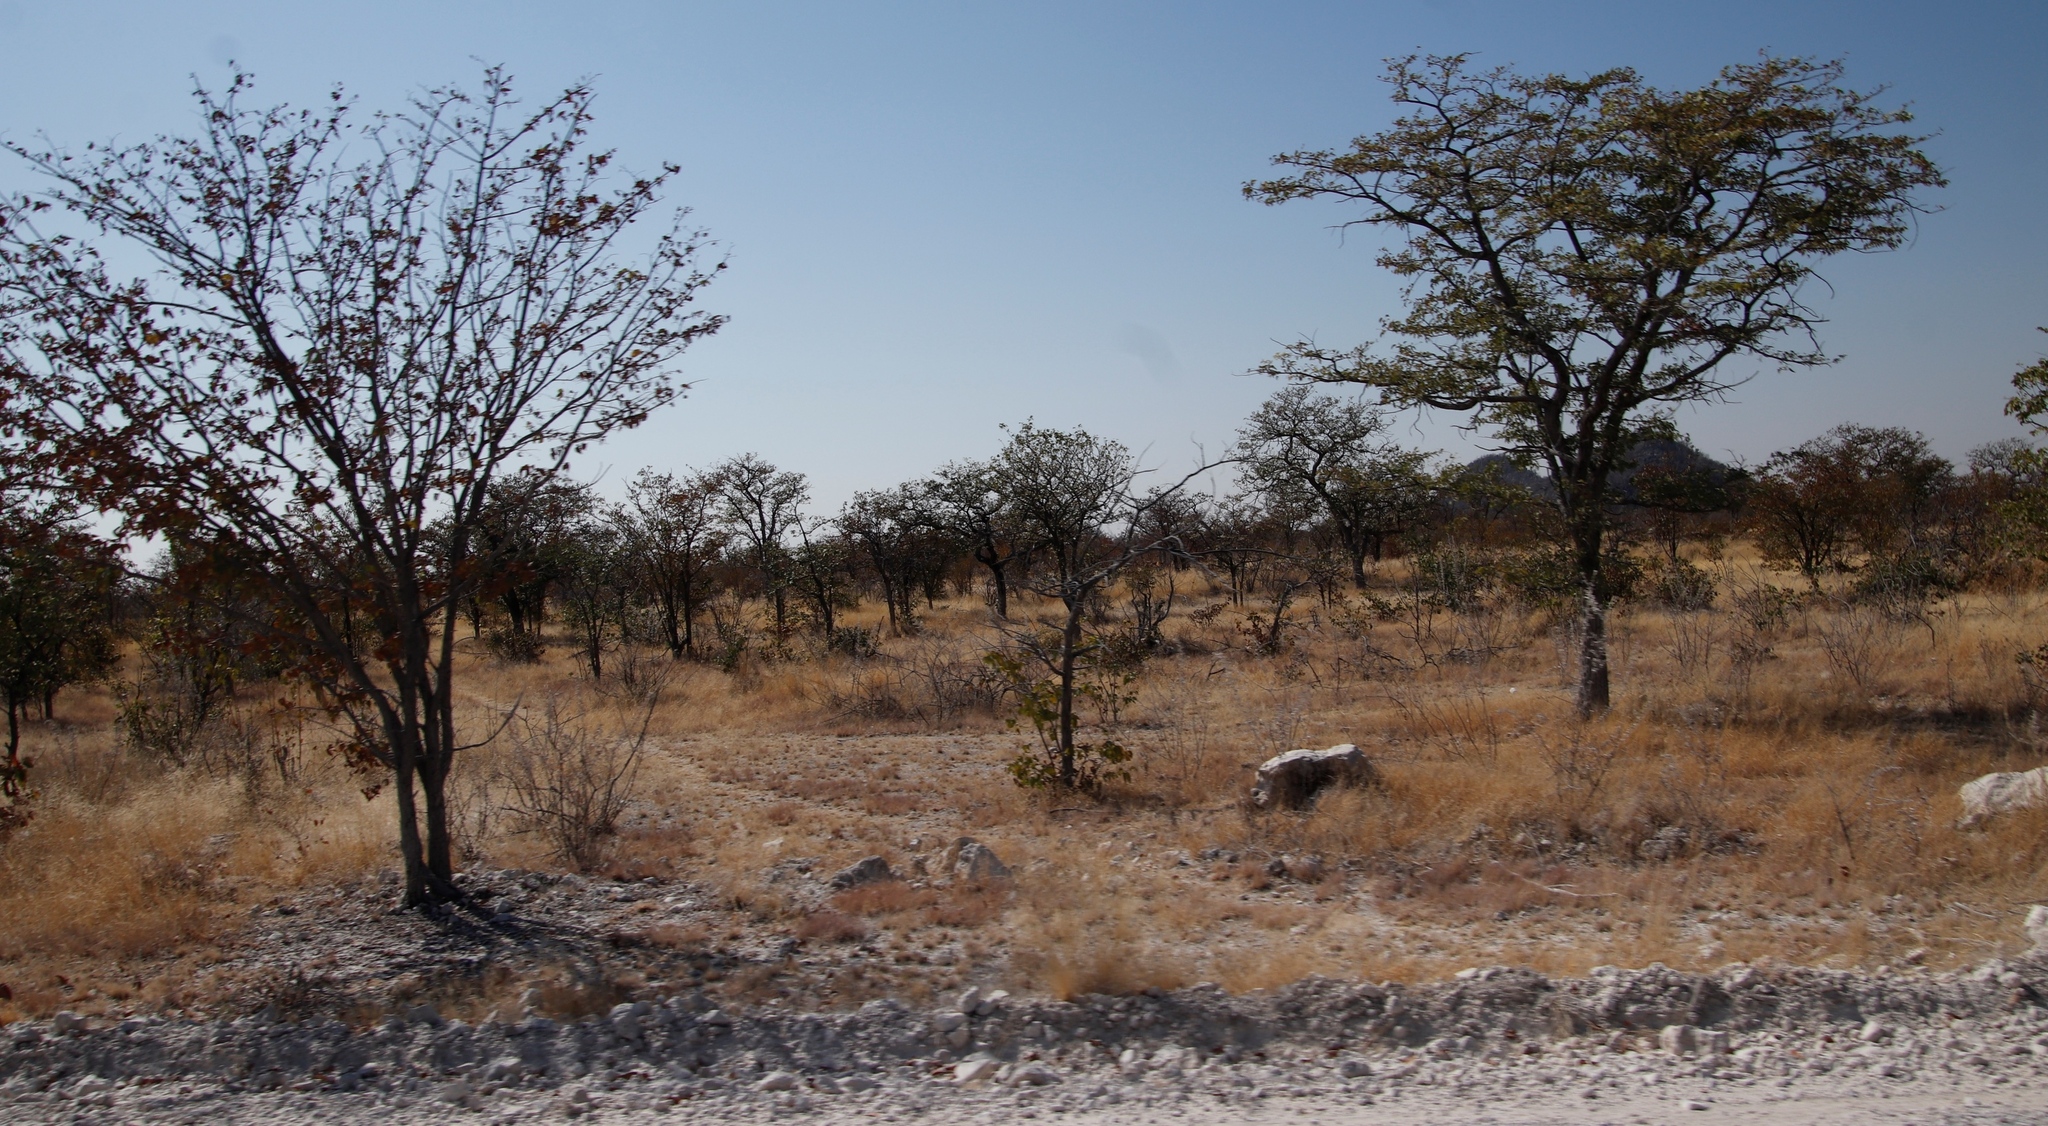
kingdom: Plantae
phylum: Tracheophyta
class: Magnoliopsida
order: Fabales
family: Fabaceae
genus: Colophospermum
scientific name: Colophospermum mopane
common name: Mopane
